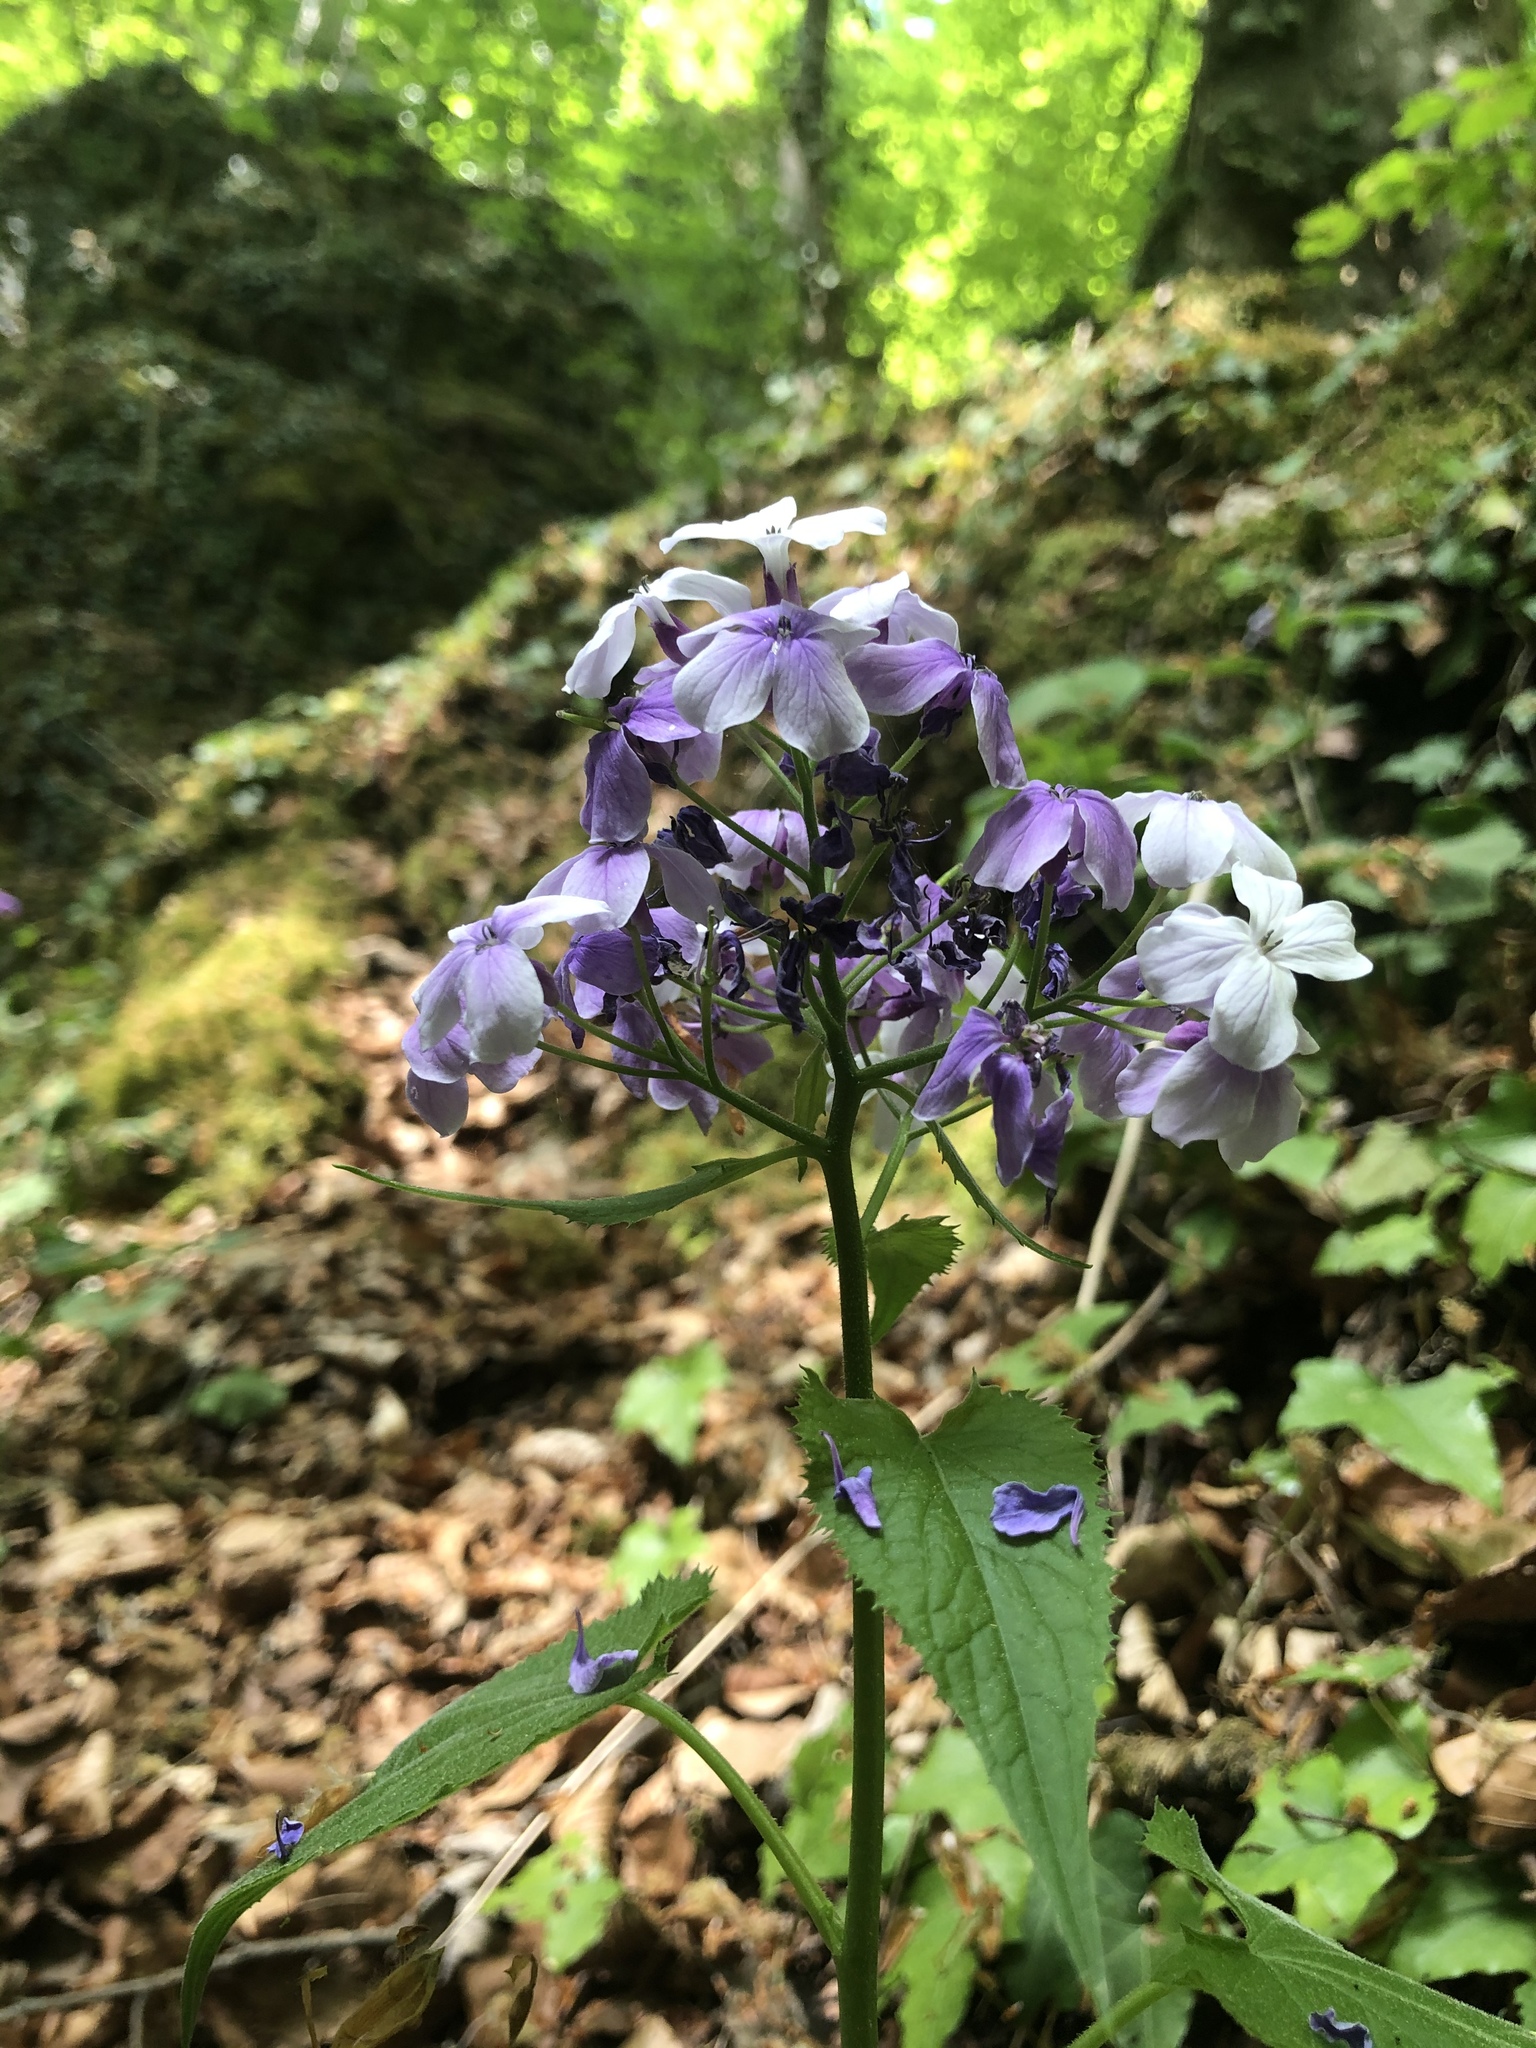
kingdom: Plantae
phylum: Tracheophyta
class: Magnoliopsida
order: Brassicales
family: Brassicaceae
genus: Lunaria
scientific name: Lunaria rediviva
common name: Perennial honesty
